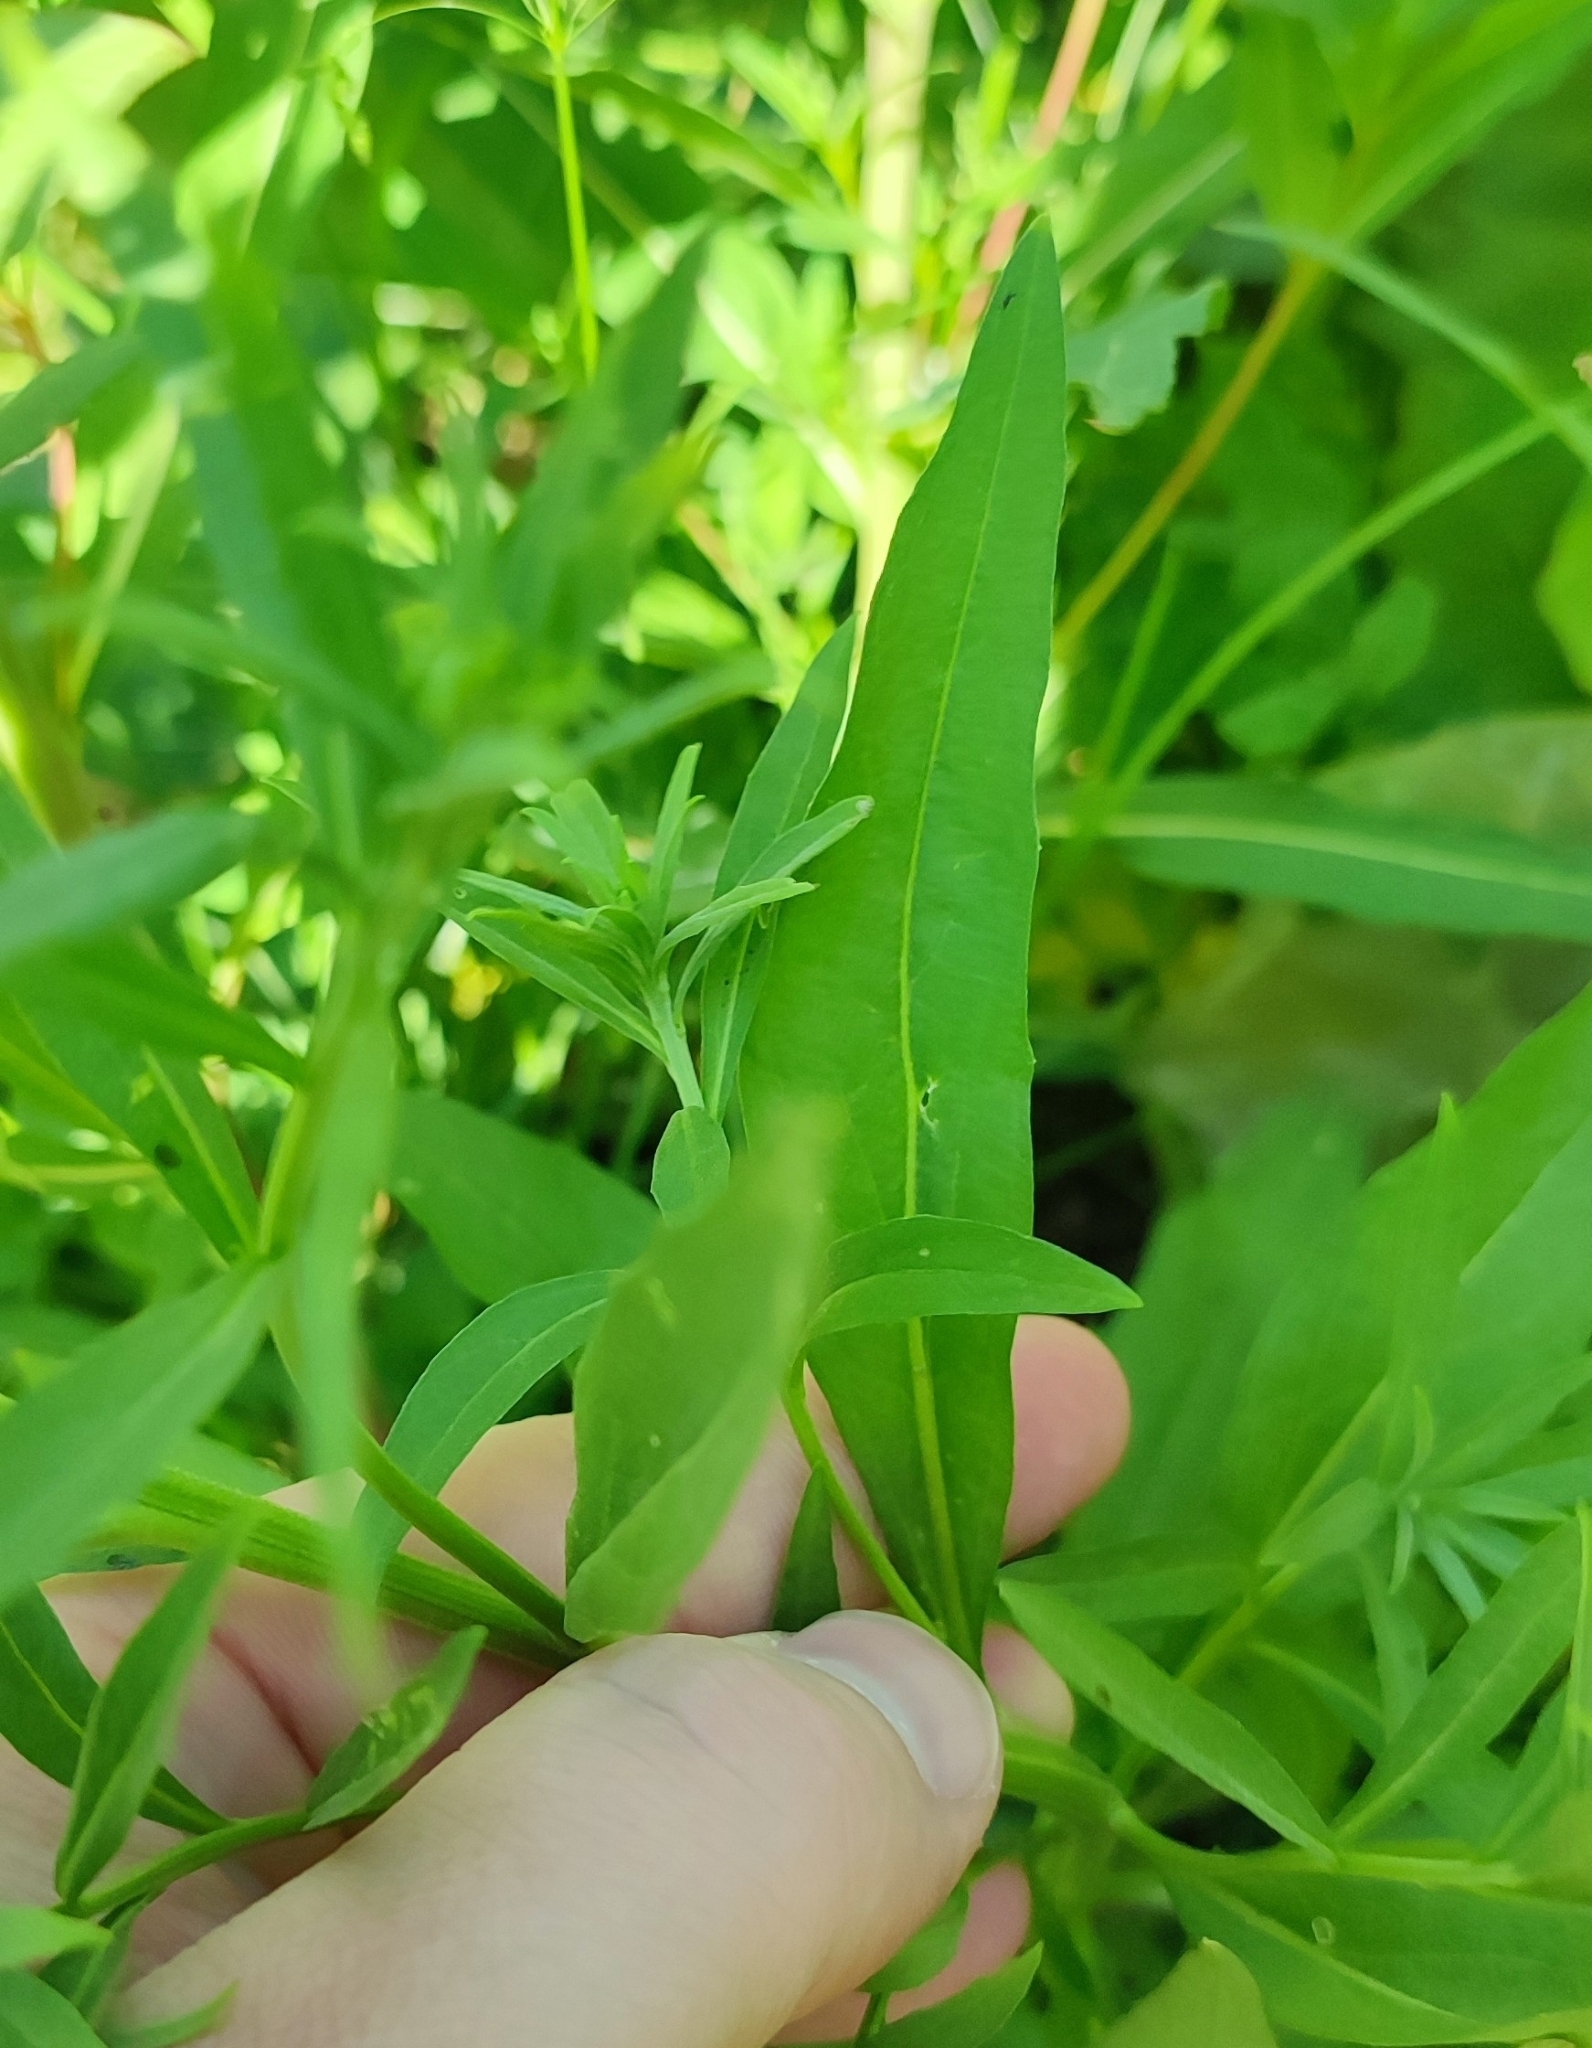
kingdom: Plantae
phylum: Tracheophyta
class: Magnoliopsida
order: Brassicales
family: Brassicaceae
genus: Erysimum
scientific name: Erysimum cheiranthoides
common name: Treacle mustard
